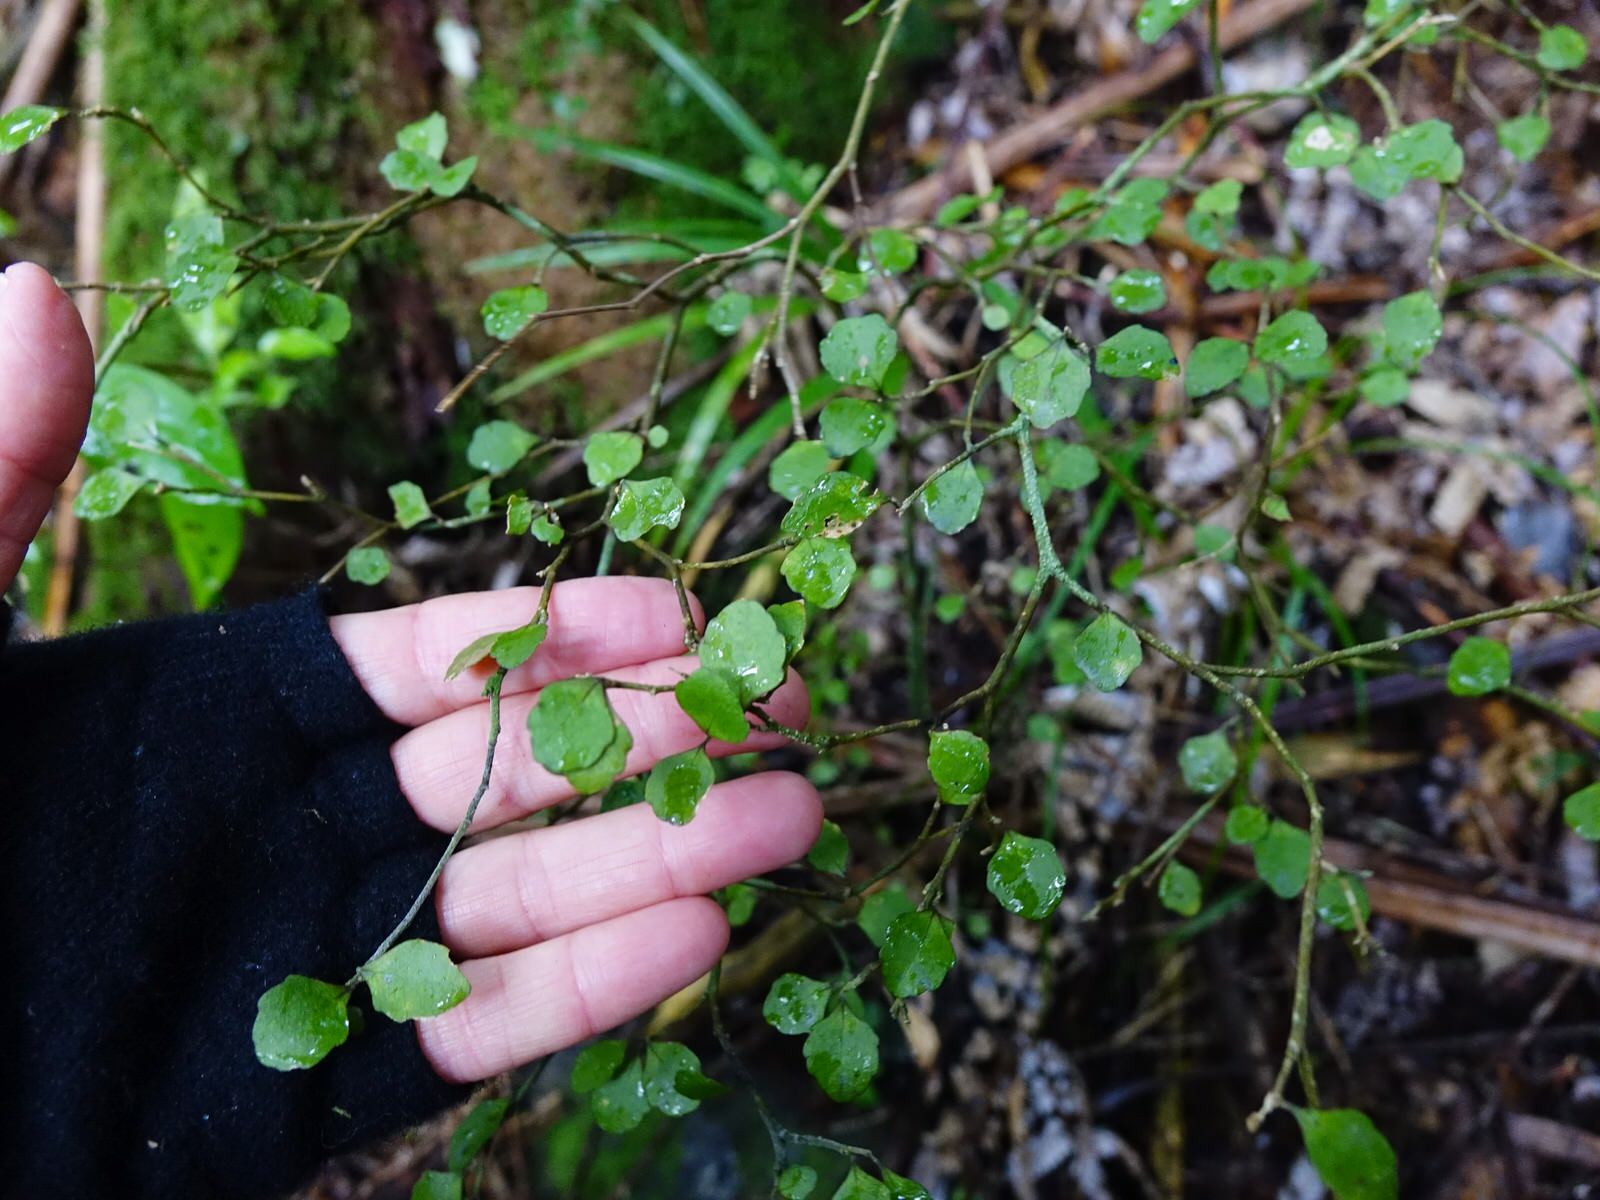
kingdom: Plantae
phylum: Tracheophyta
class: Magnoliopsida
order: Apiales
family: Araliaceae
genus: Raukaua
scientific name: Raukaua anomalus
